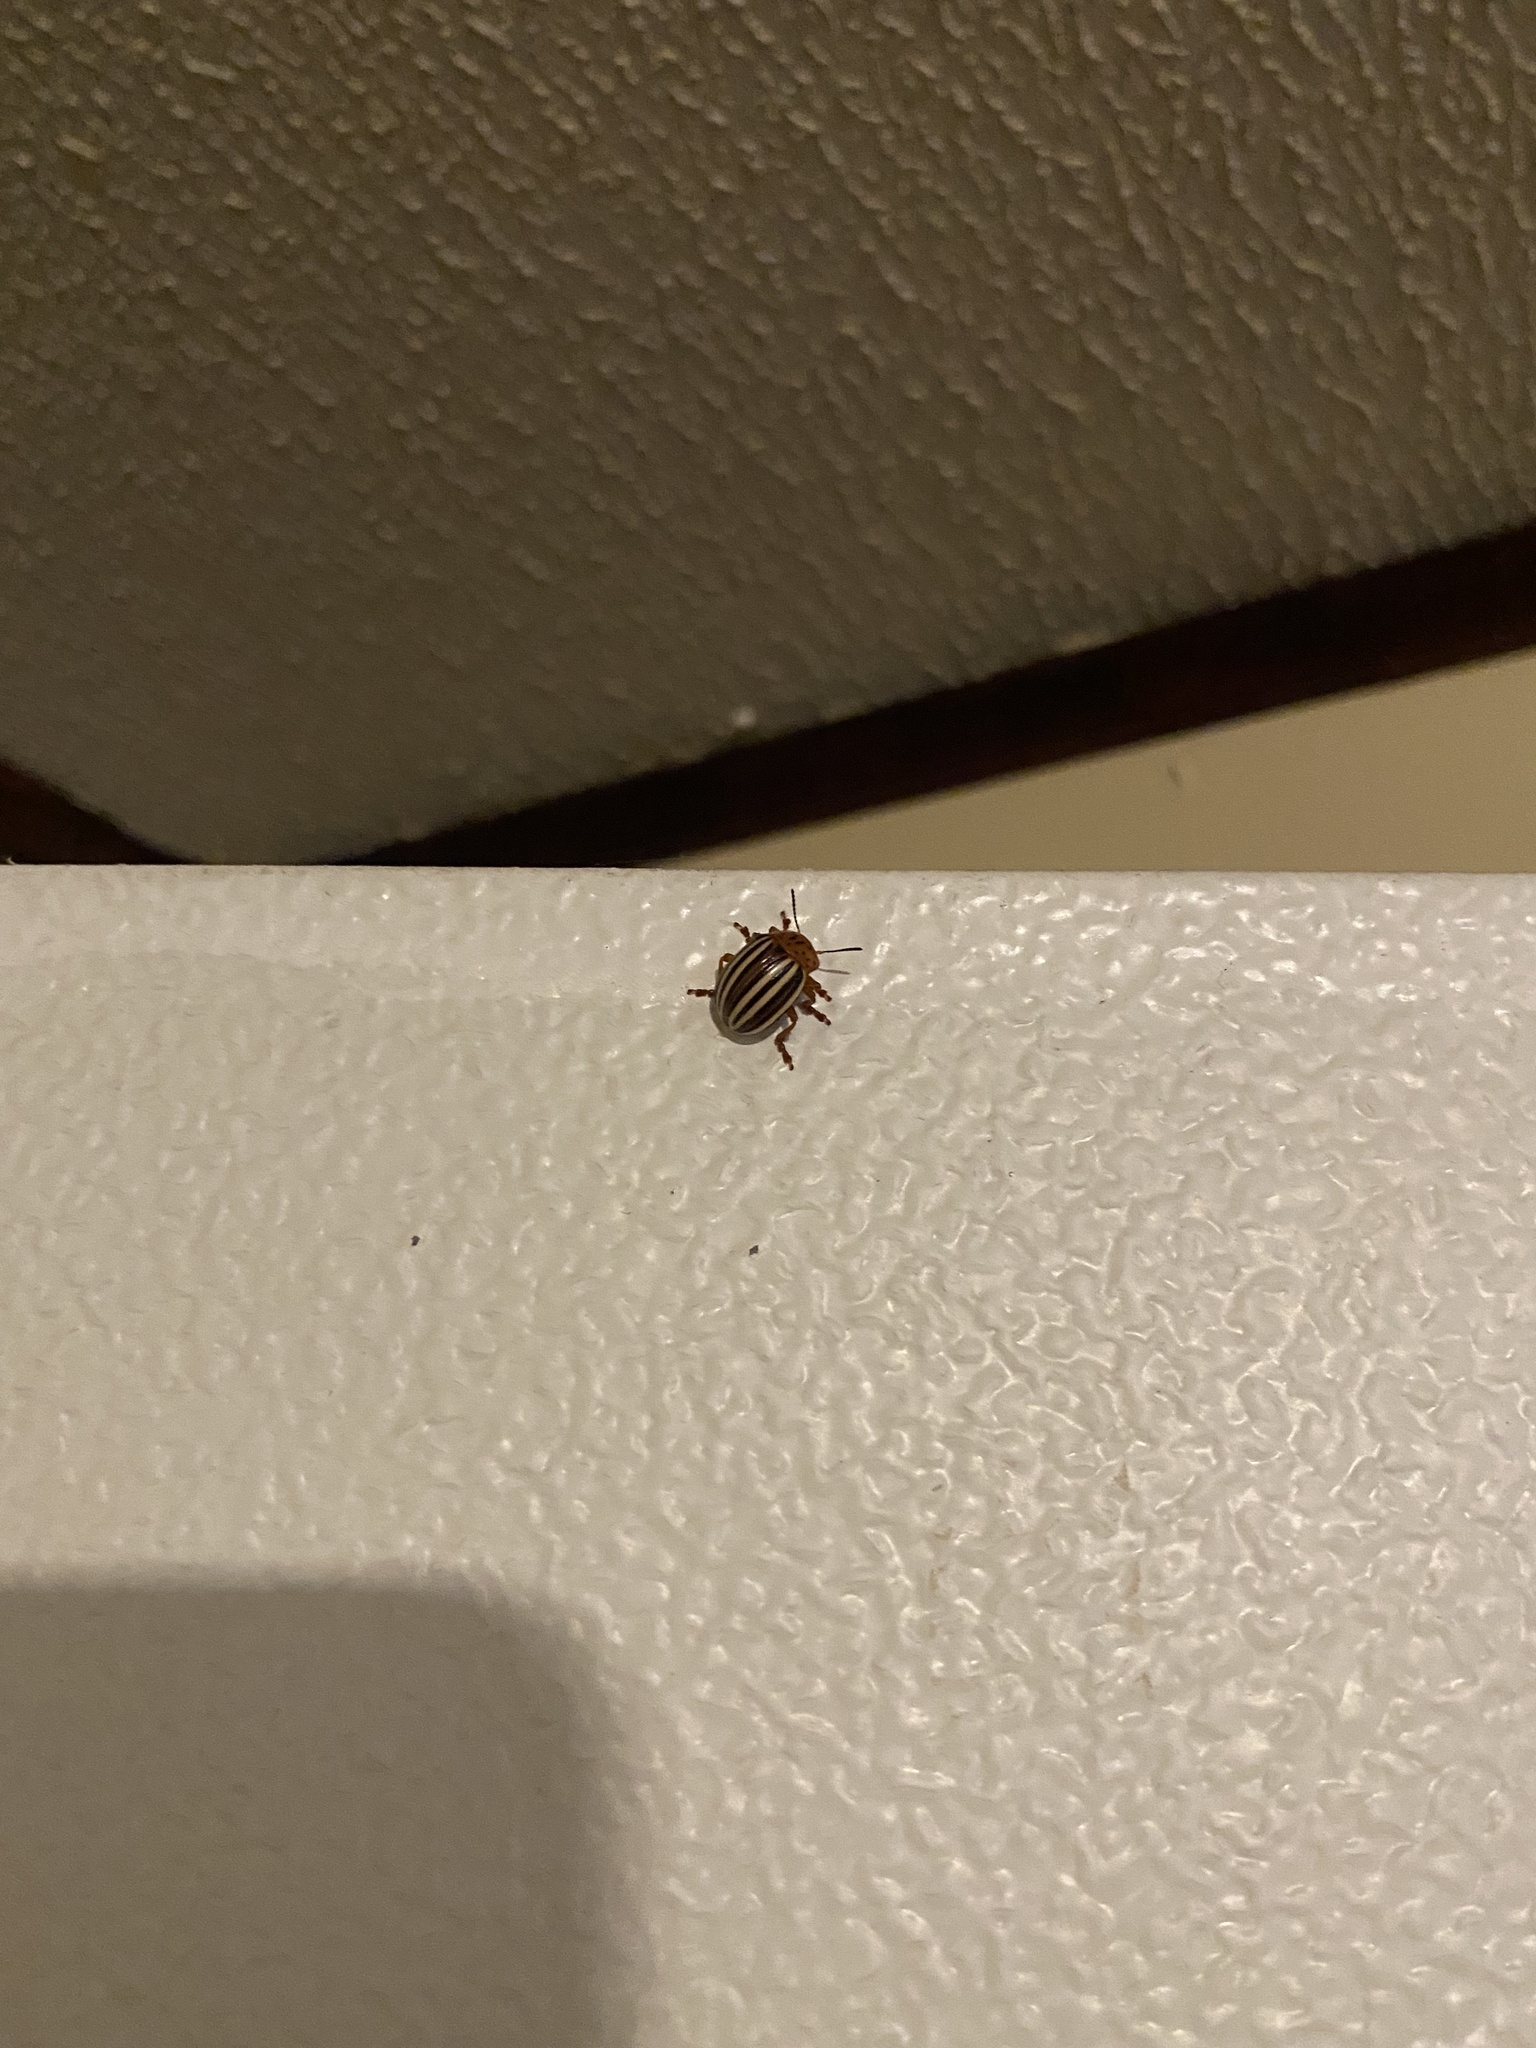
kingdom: Animalia
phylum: Arthropoda
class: Insecta
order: Coleoptera
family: Chrysomelidae
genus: Leptinotarsa
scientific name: Leptinotarsa juncta
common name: False potato beetle
